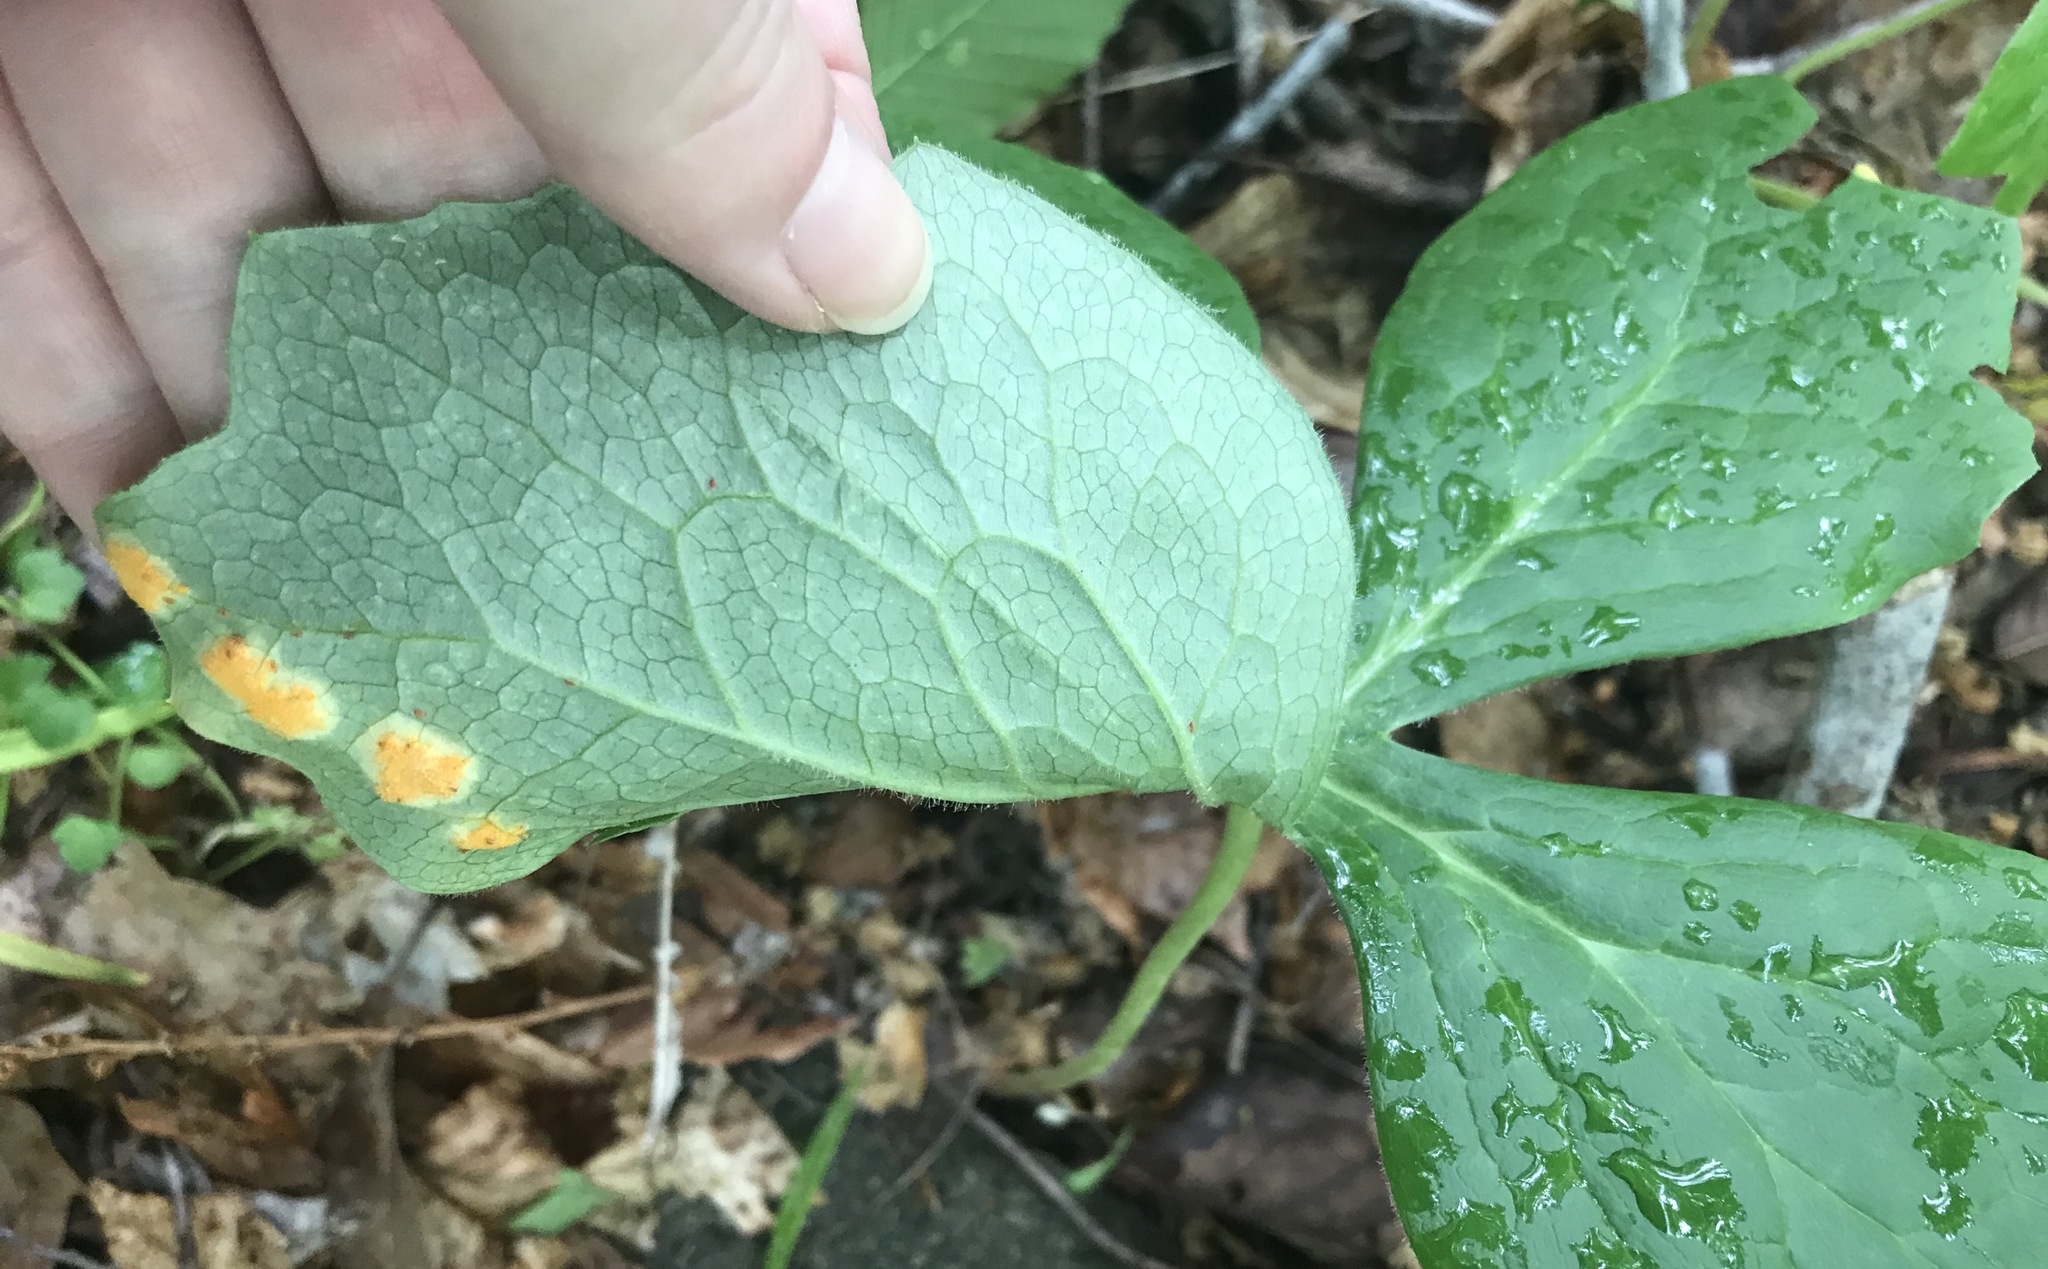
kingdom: Fungi
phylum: Basidiomycota
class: Pucciniomycetes
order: Pucciniales
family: Pucciniaceae
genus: Puccinia
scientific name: Puccinia podophylli
